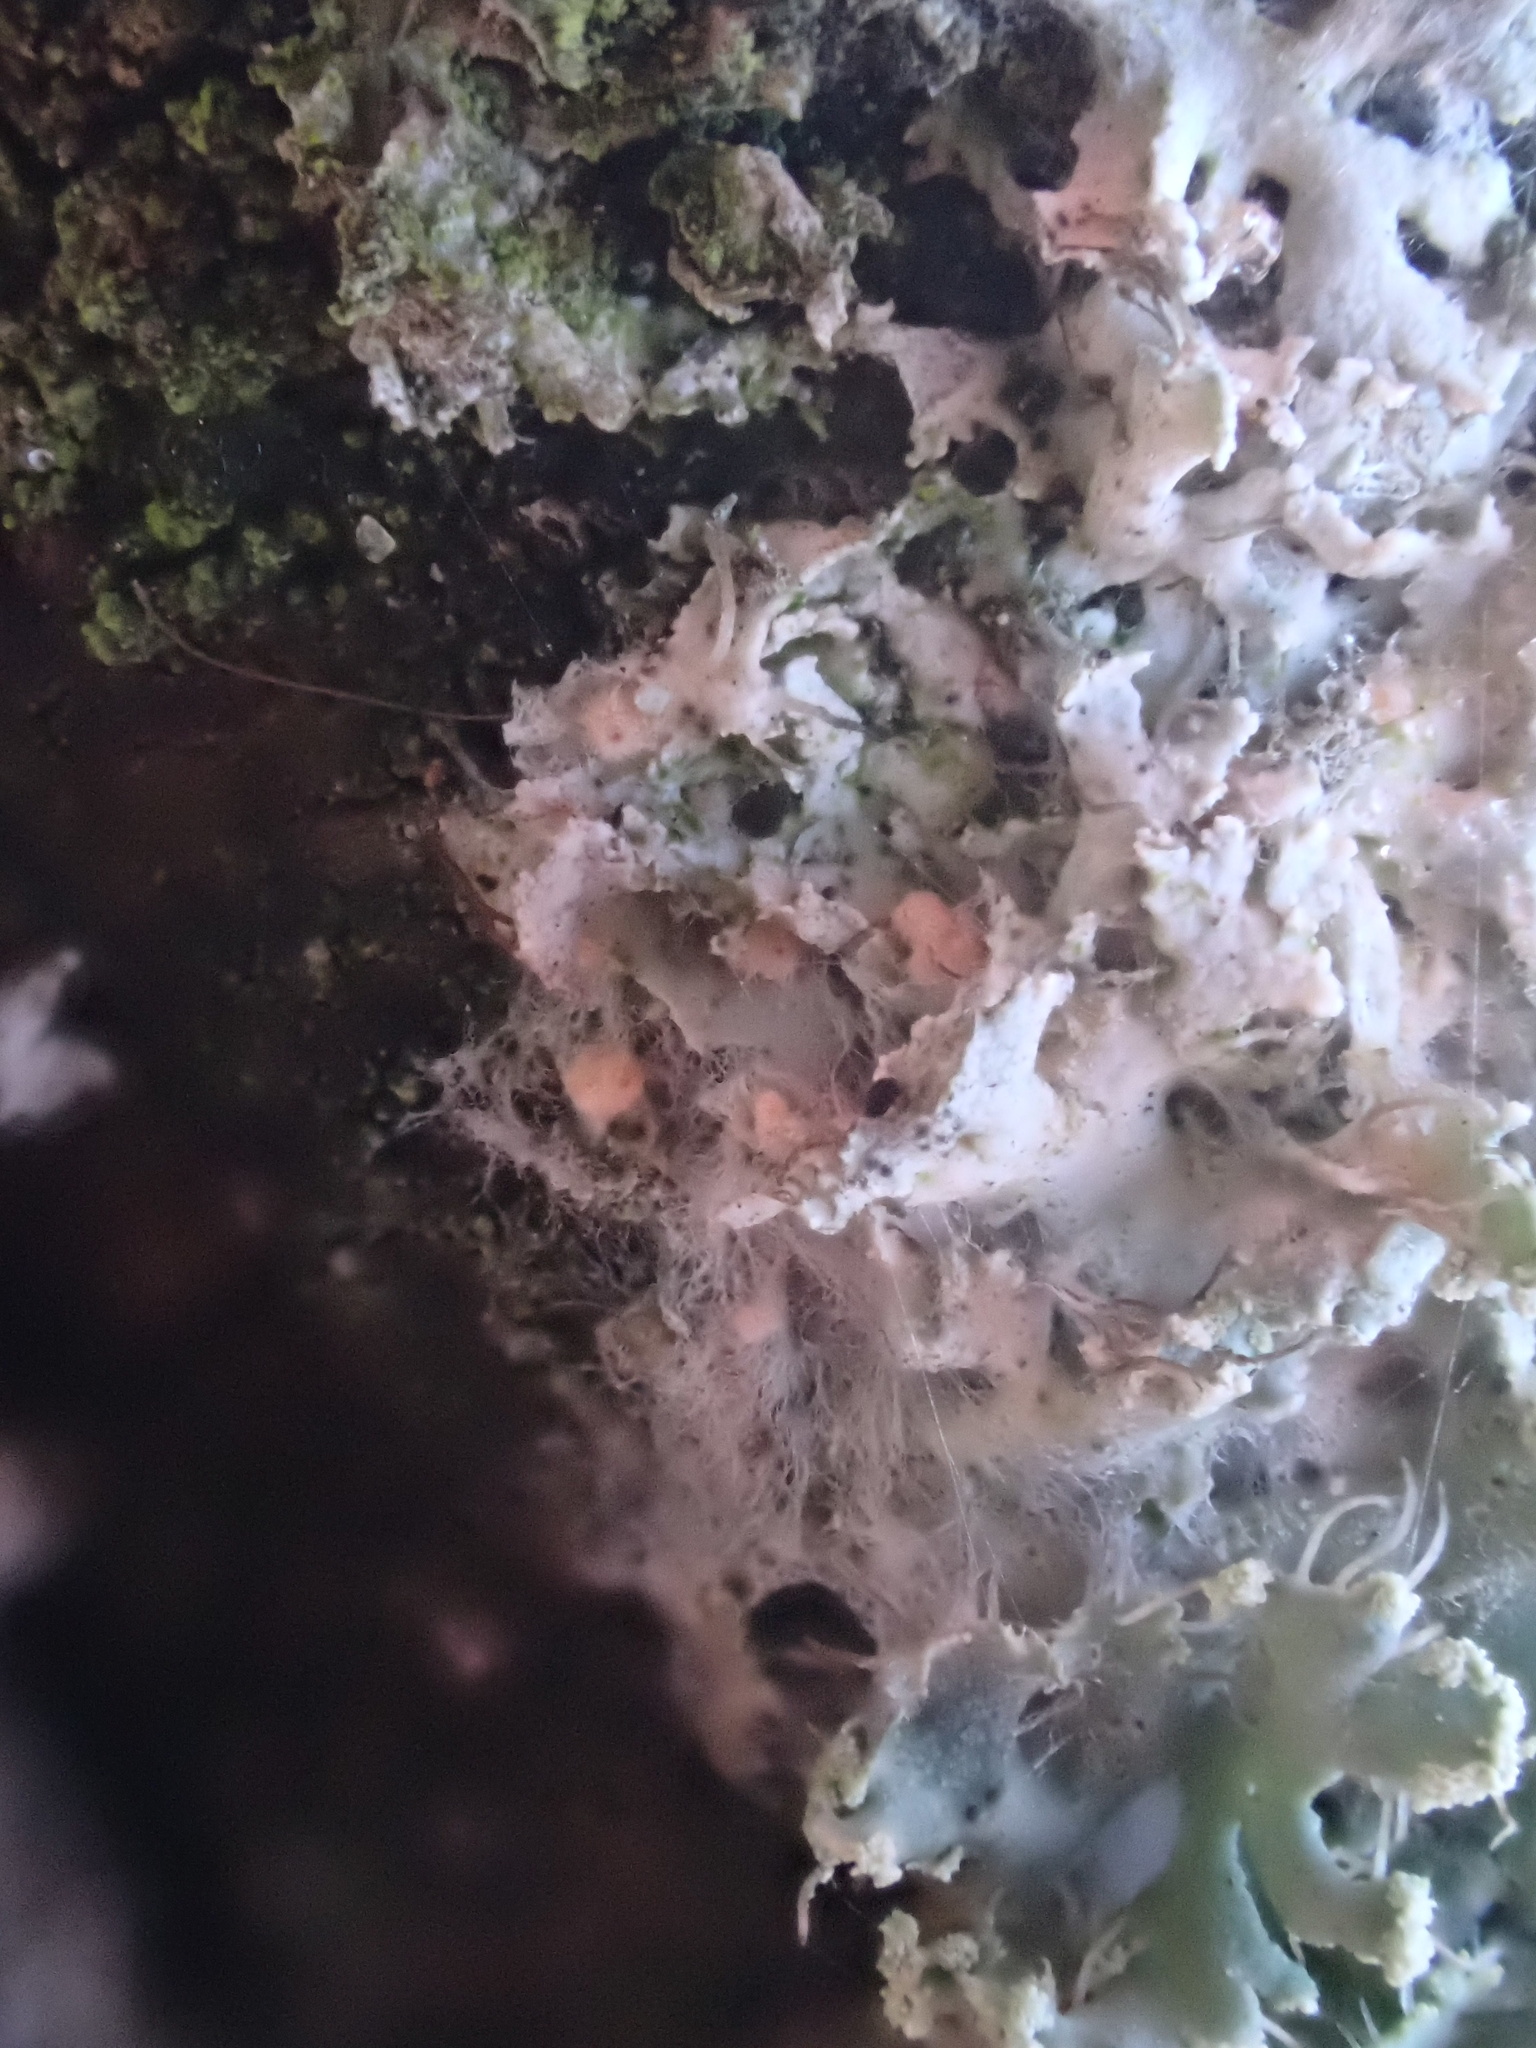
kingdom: Fungi
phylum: Ascomycota
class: Sordariomycetes
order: Hypocreales
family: Bionectriaceae
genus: Paranectria
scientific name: Paranectria oropensis
